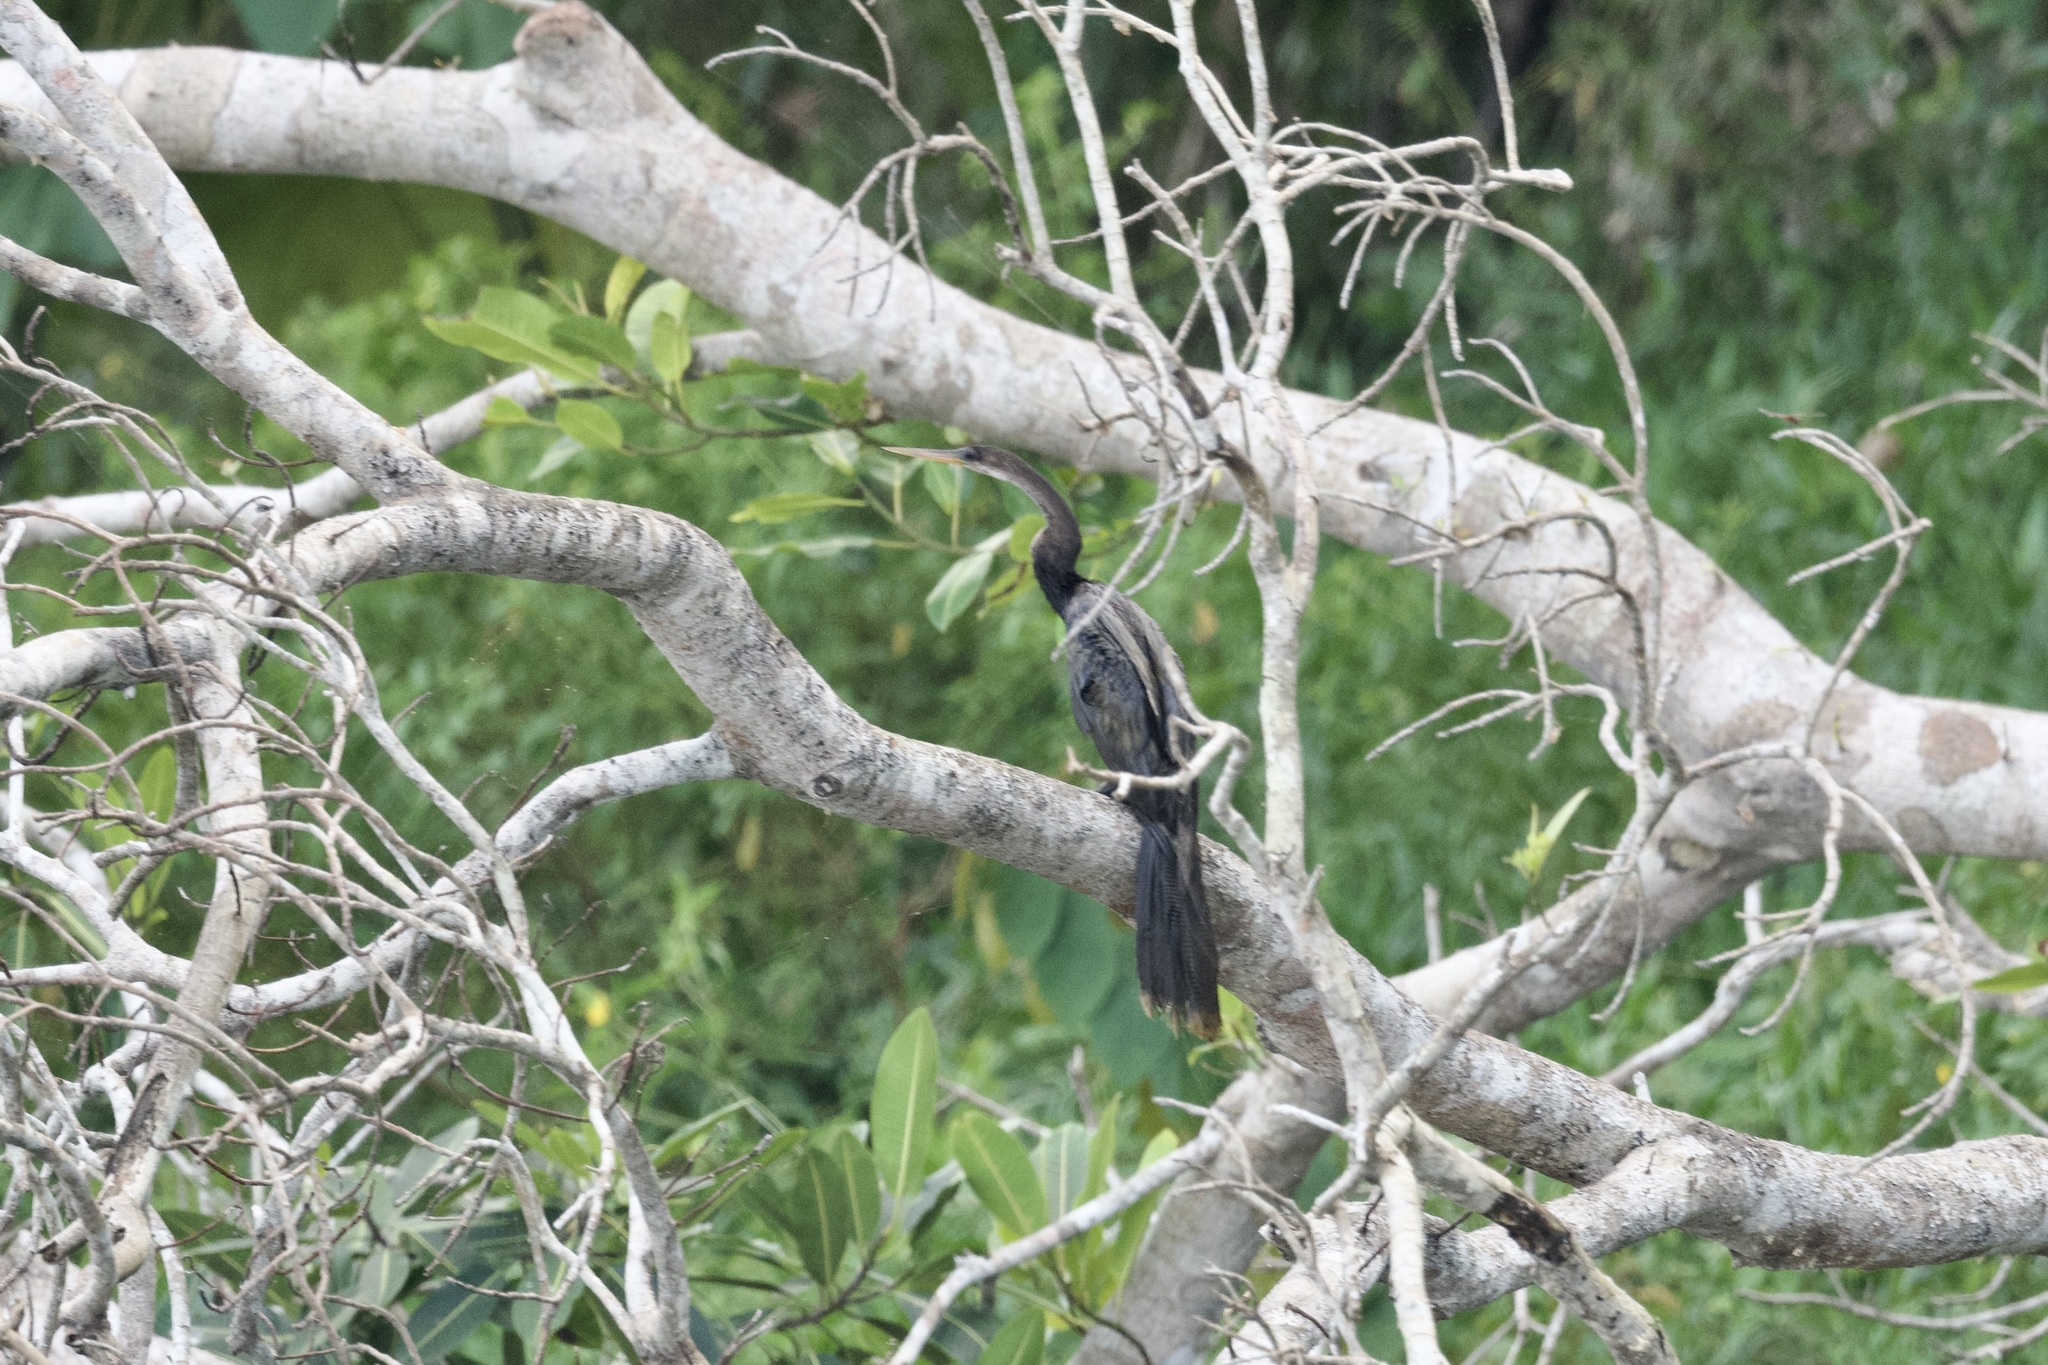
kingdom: Animalia
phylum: Chordata
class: Aves
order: Suliformes
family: Anhingidae
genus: Anhinga
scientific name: Anhinga anhinga
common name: Anhinga
